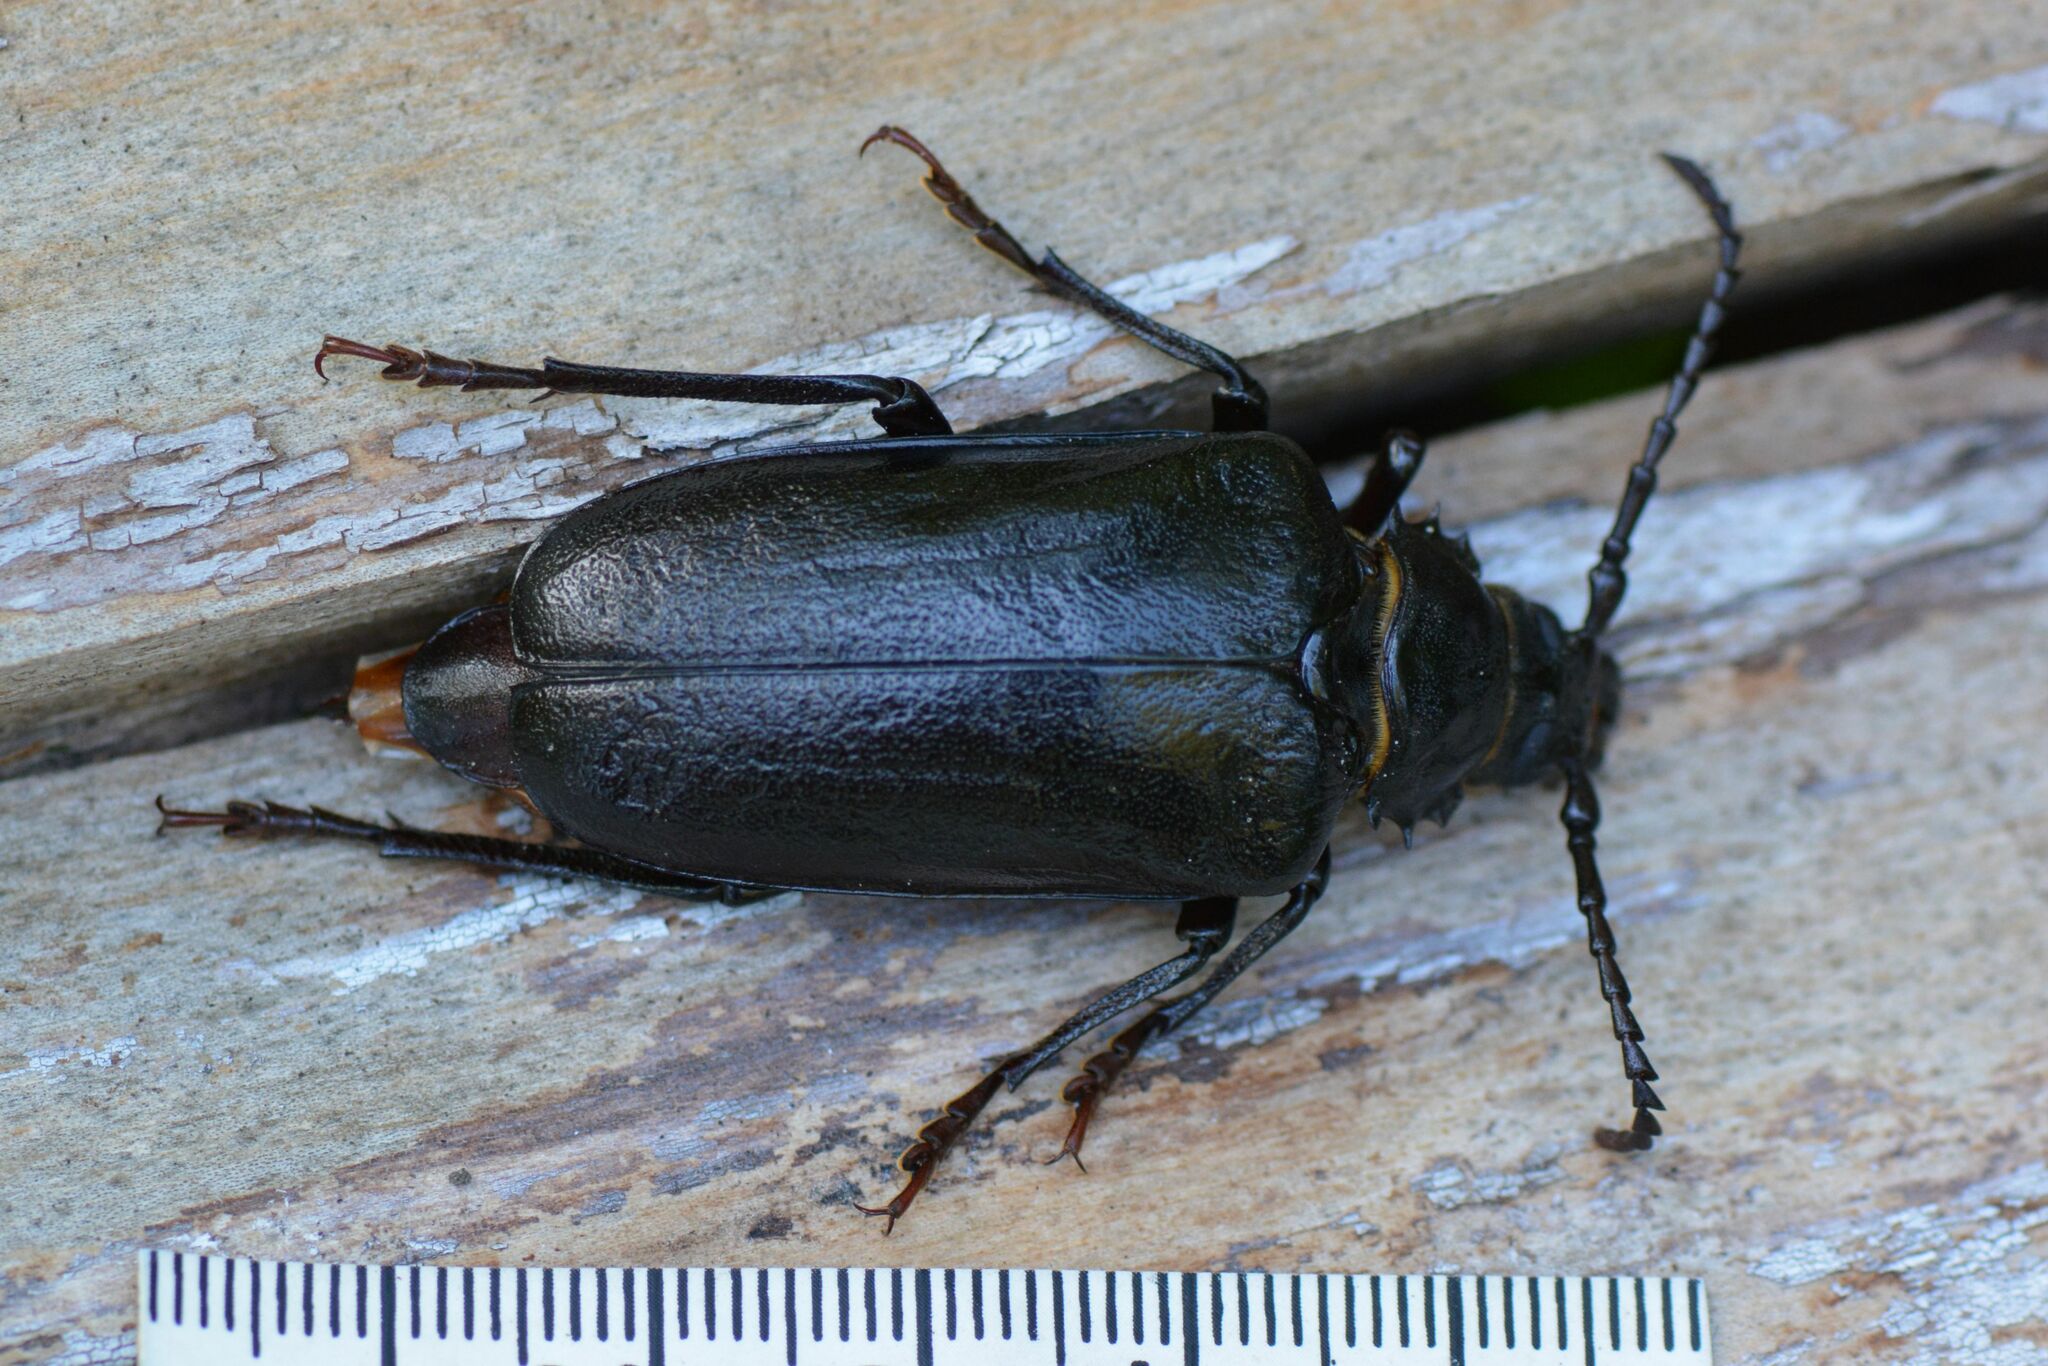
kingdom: Animalia
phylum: Arthropoda
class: Insecta
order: Coleoptera
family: Cerambycidae
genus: Prionus
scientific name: Prionus coriarius
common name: Tanner beetle
